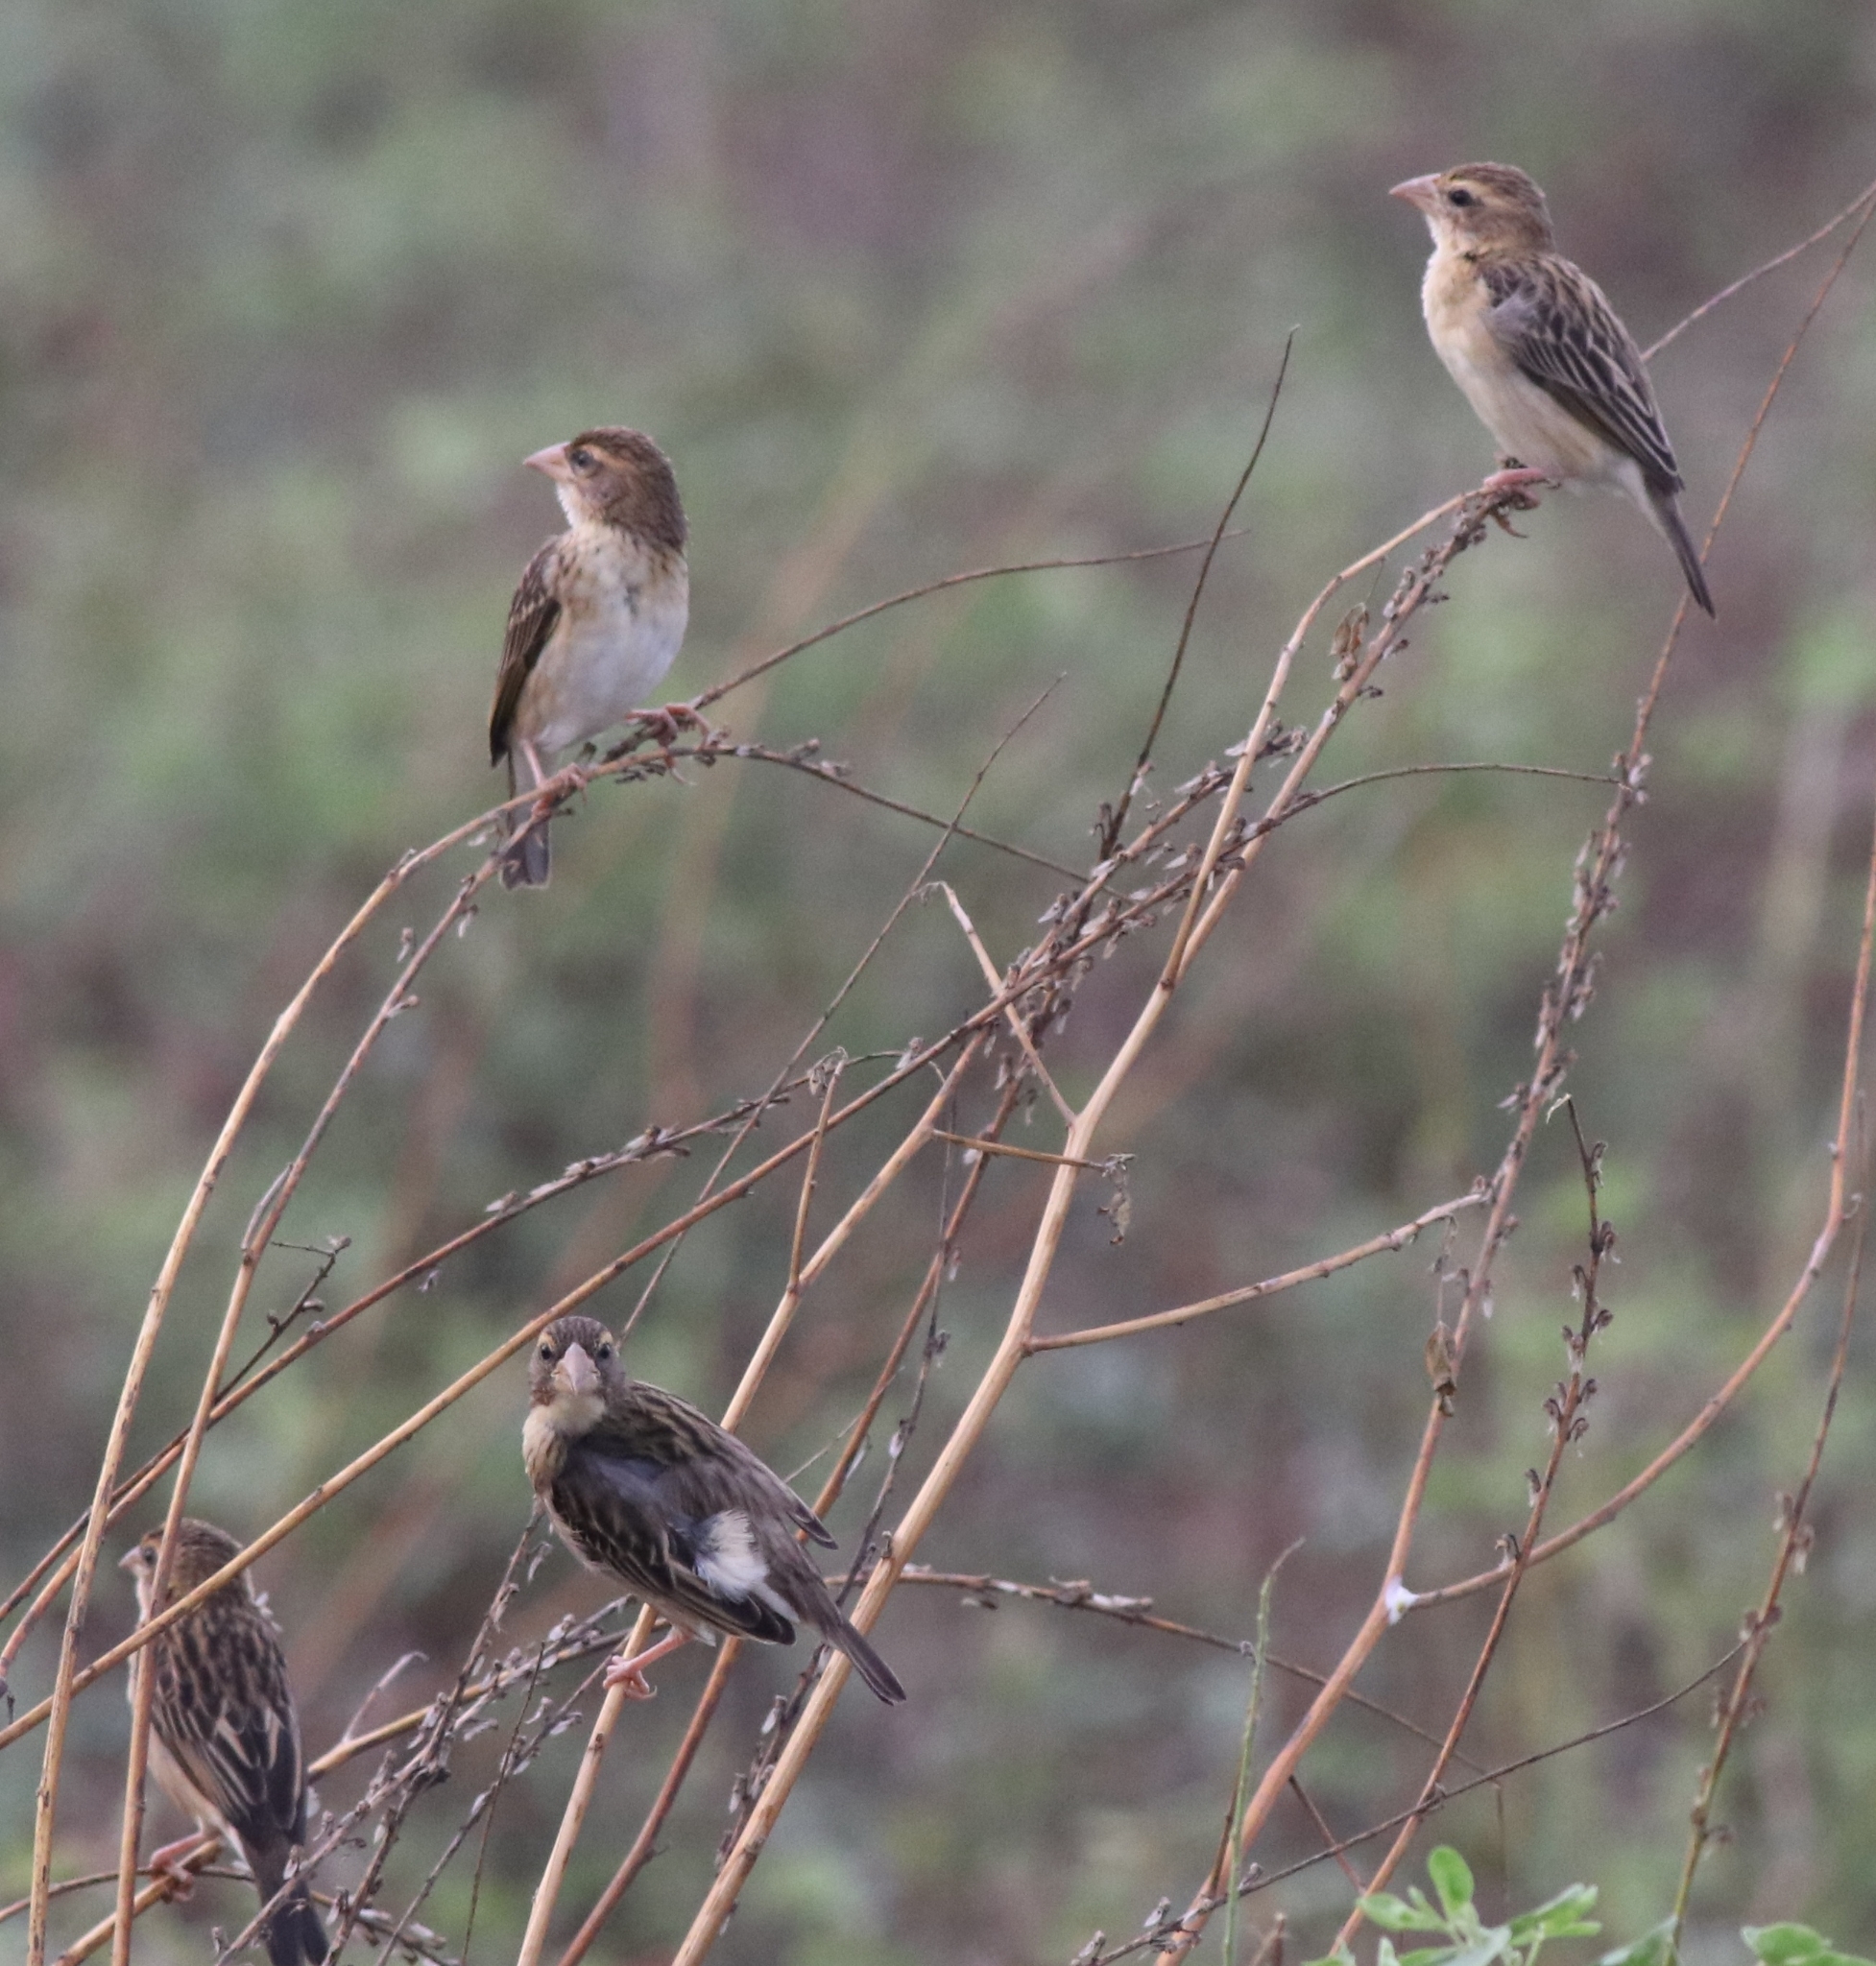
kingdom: Animalia
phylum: Chordata
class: Aves
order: Passeriformes
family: Ploceidae
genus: Ploceus
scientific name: Ploceus philippinus
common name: Baya weaver
